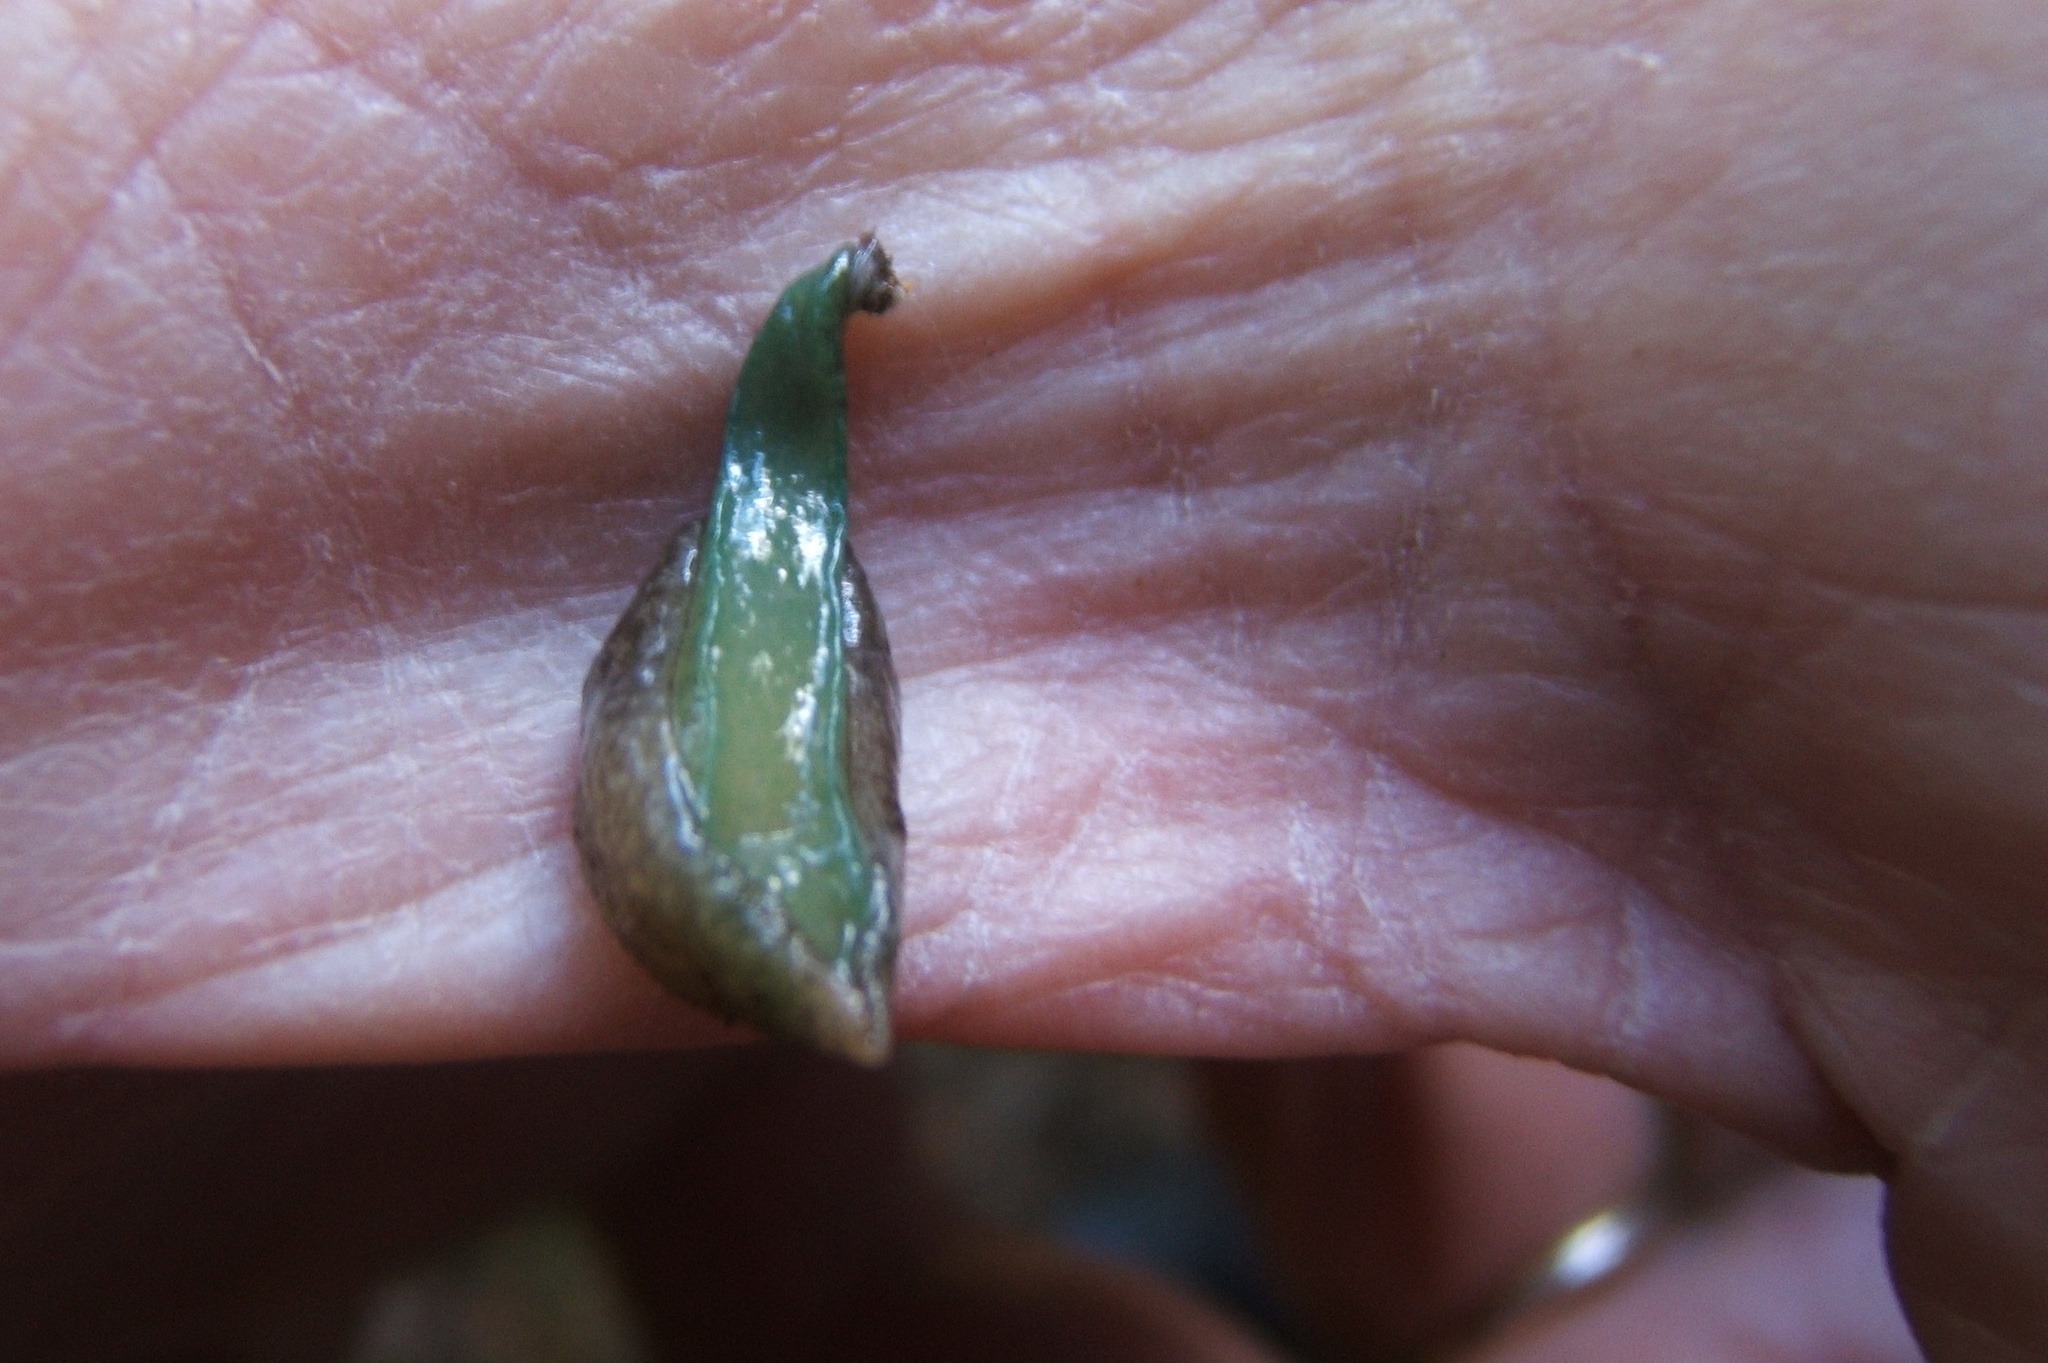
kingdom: Animalia
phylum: Mollusca
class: Gastropoda
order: Stylommatophora
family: Cystopeltidae
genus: Cystopelta
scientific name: Cystopelta bicolor
